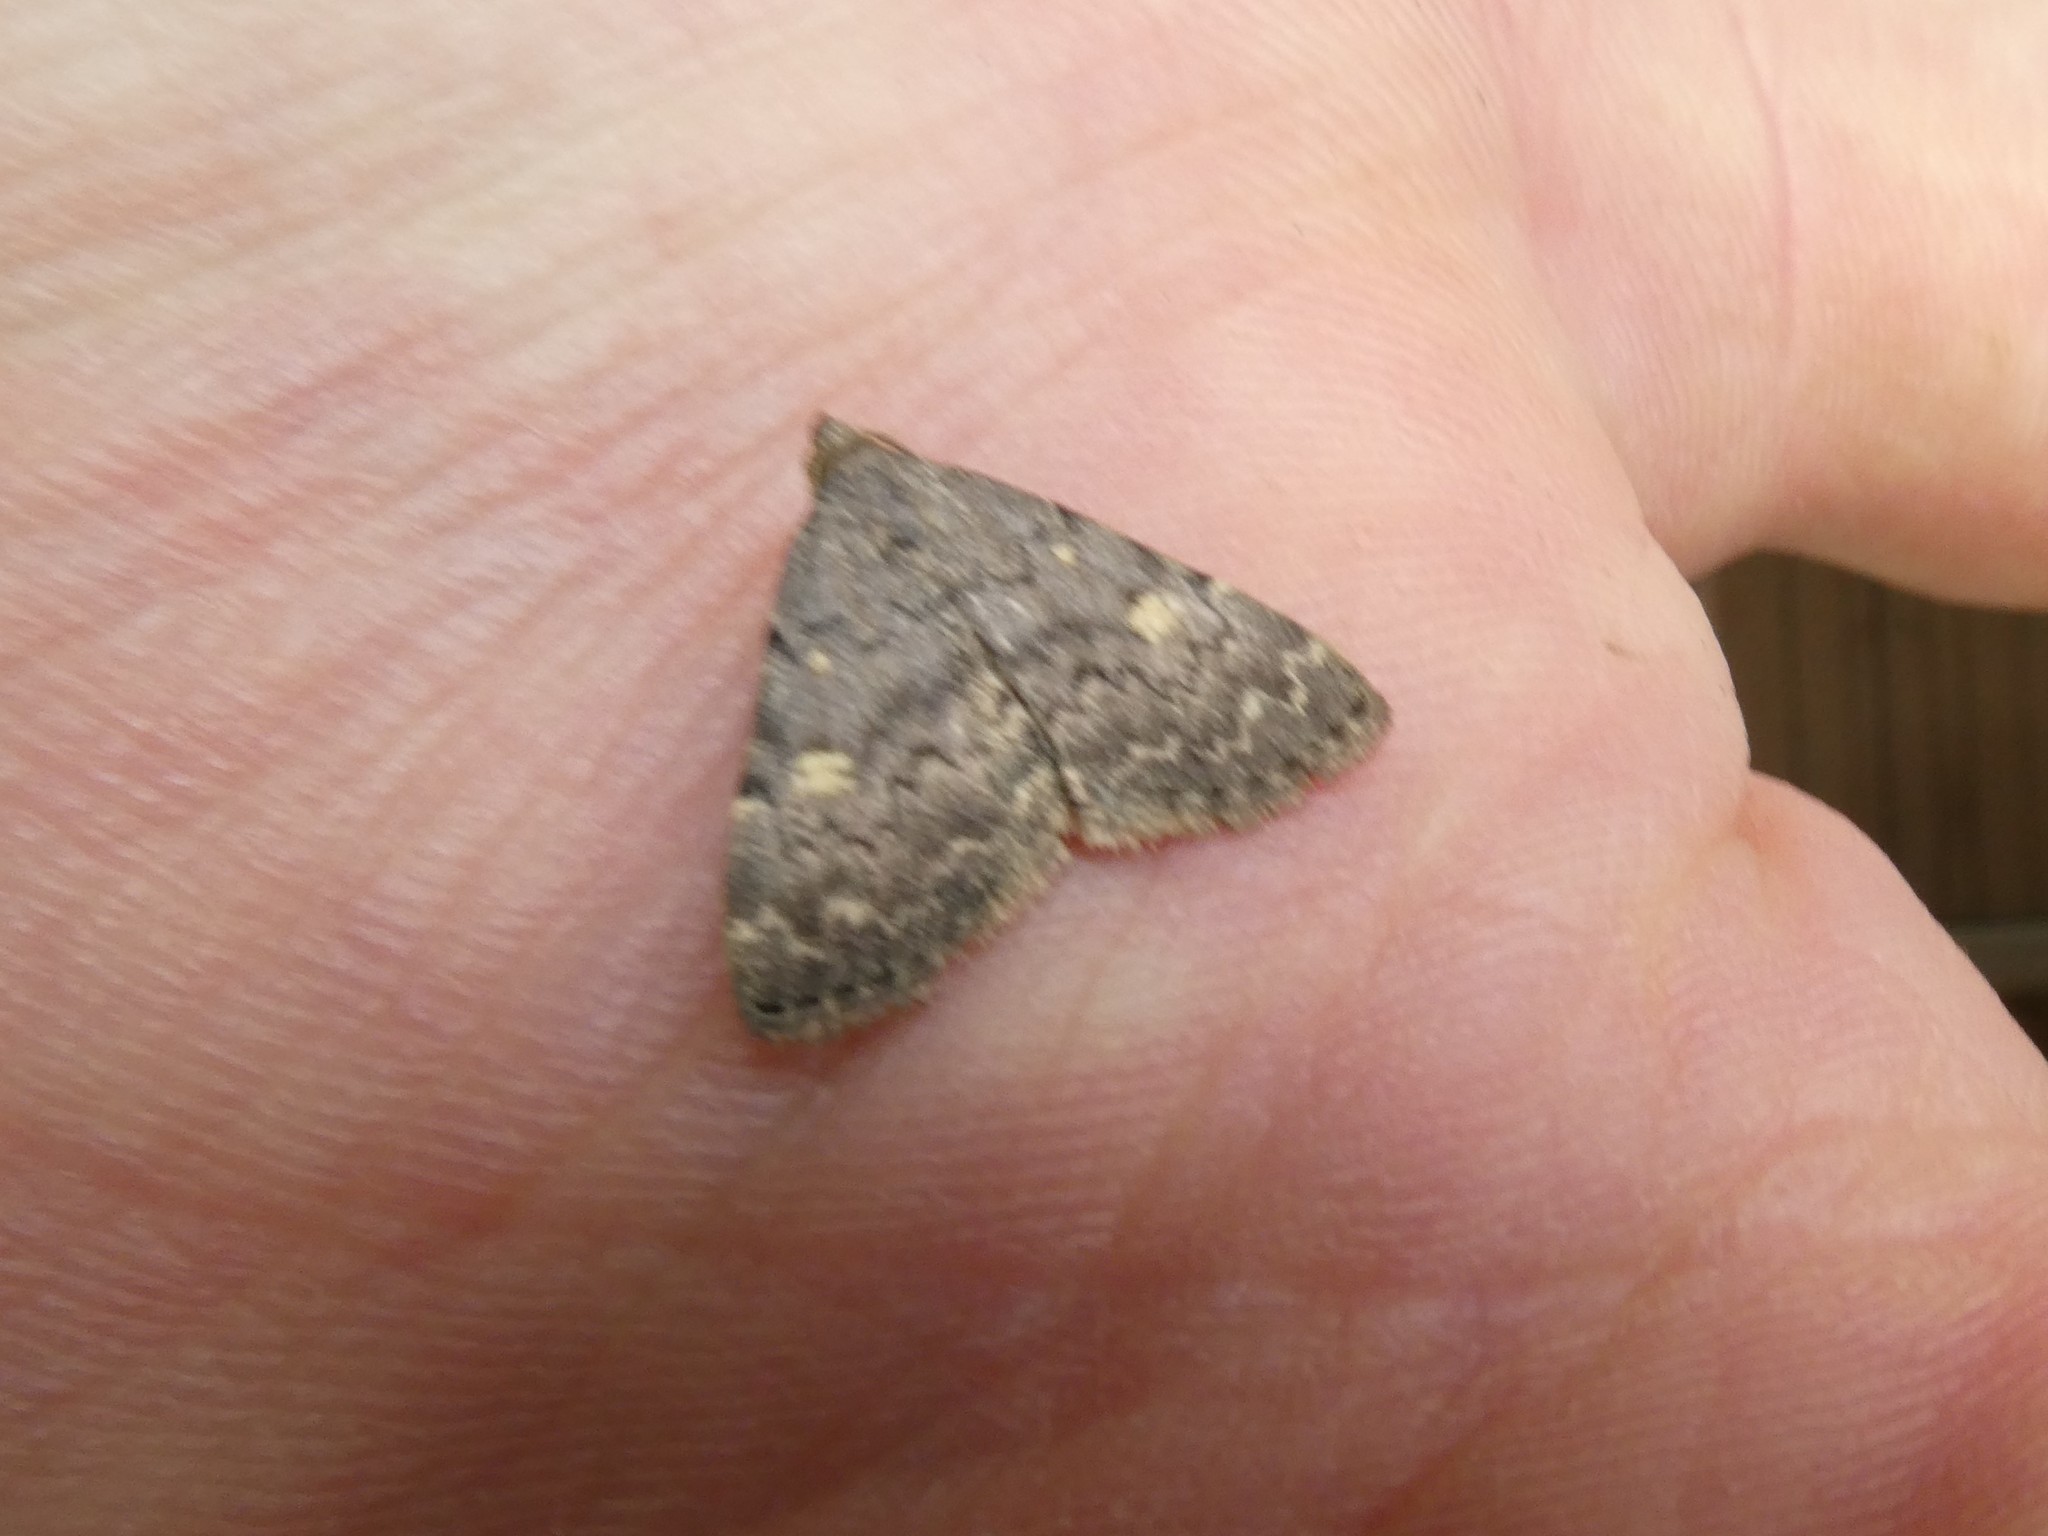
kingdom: Animalia
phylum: Arthropoda
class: Insecta
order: Lepidoptera
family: Erebidae
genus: Idia
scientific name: Idia aemula
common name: Common idia moth
